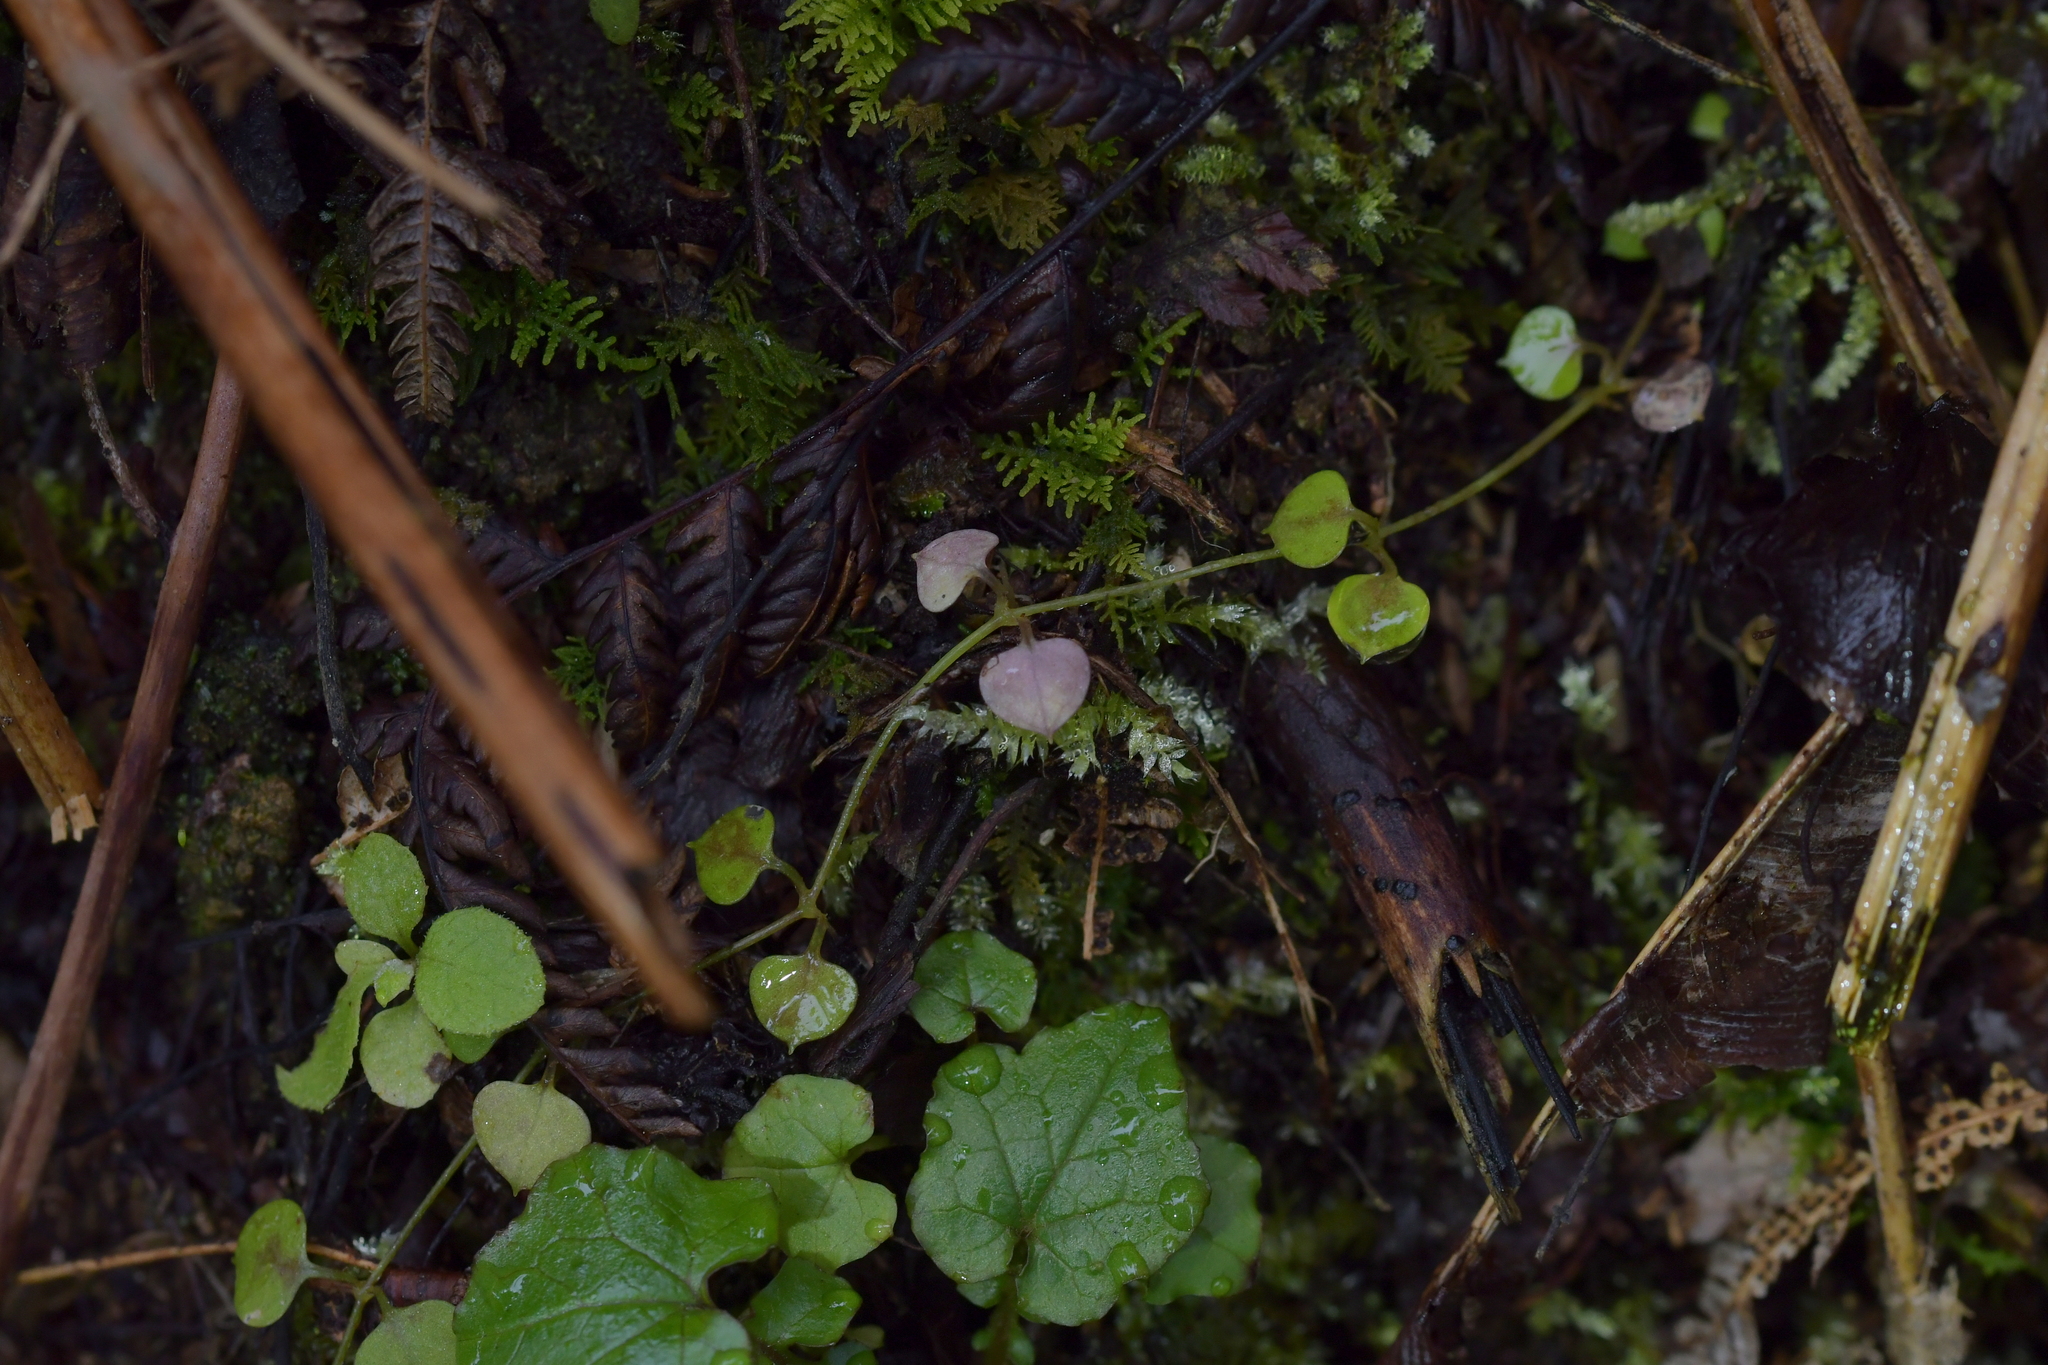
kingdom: Plantae
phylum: Tracheophyta
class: Magnoliopsida
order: Caryophyllales
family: Caryophyllaceae
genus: Stellaria
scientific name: Stellaria parviflora
